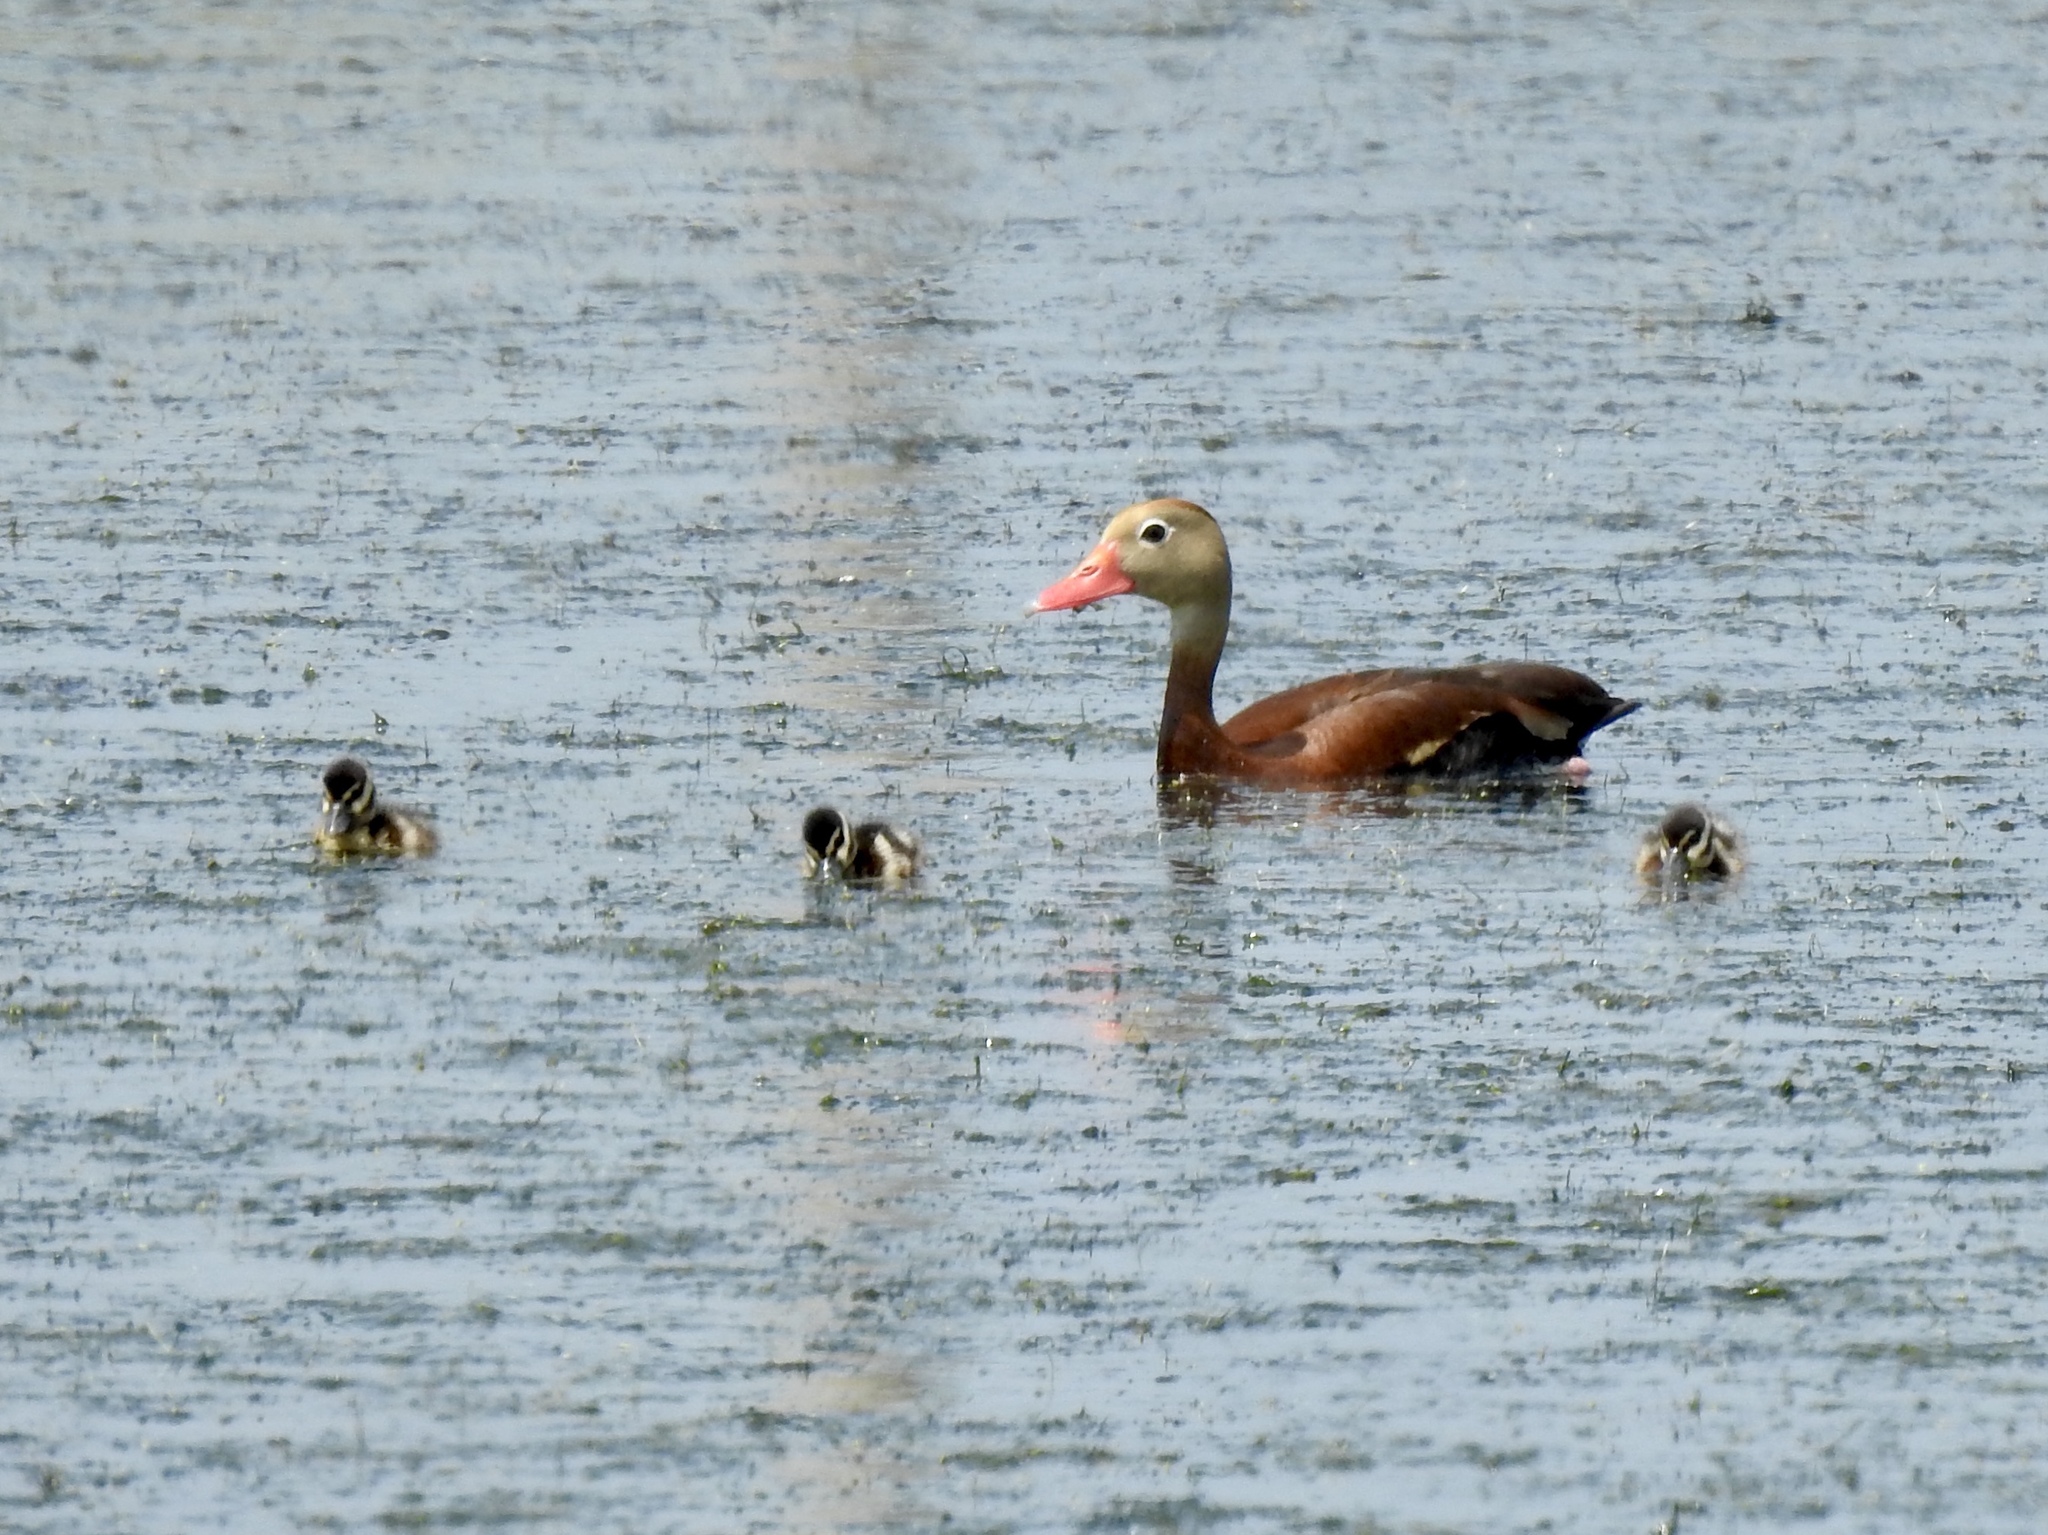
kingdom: Animalia
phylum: Chordata
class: Aves
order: Anseriformes
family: Anatidae
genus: Dendrocygna
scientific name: Dendrocygna autumnalis
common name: Black-bellied whistling duck
